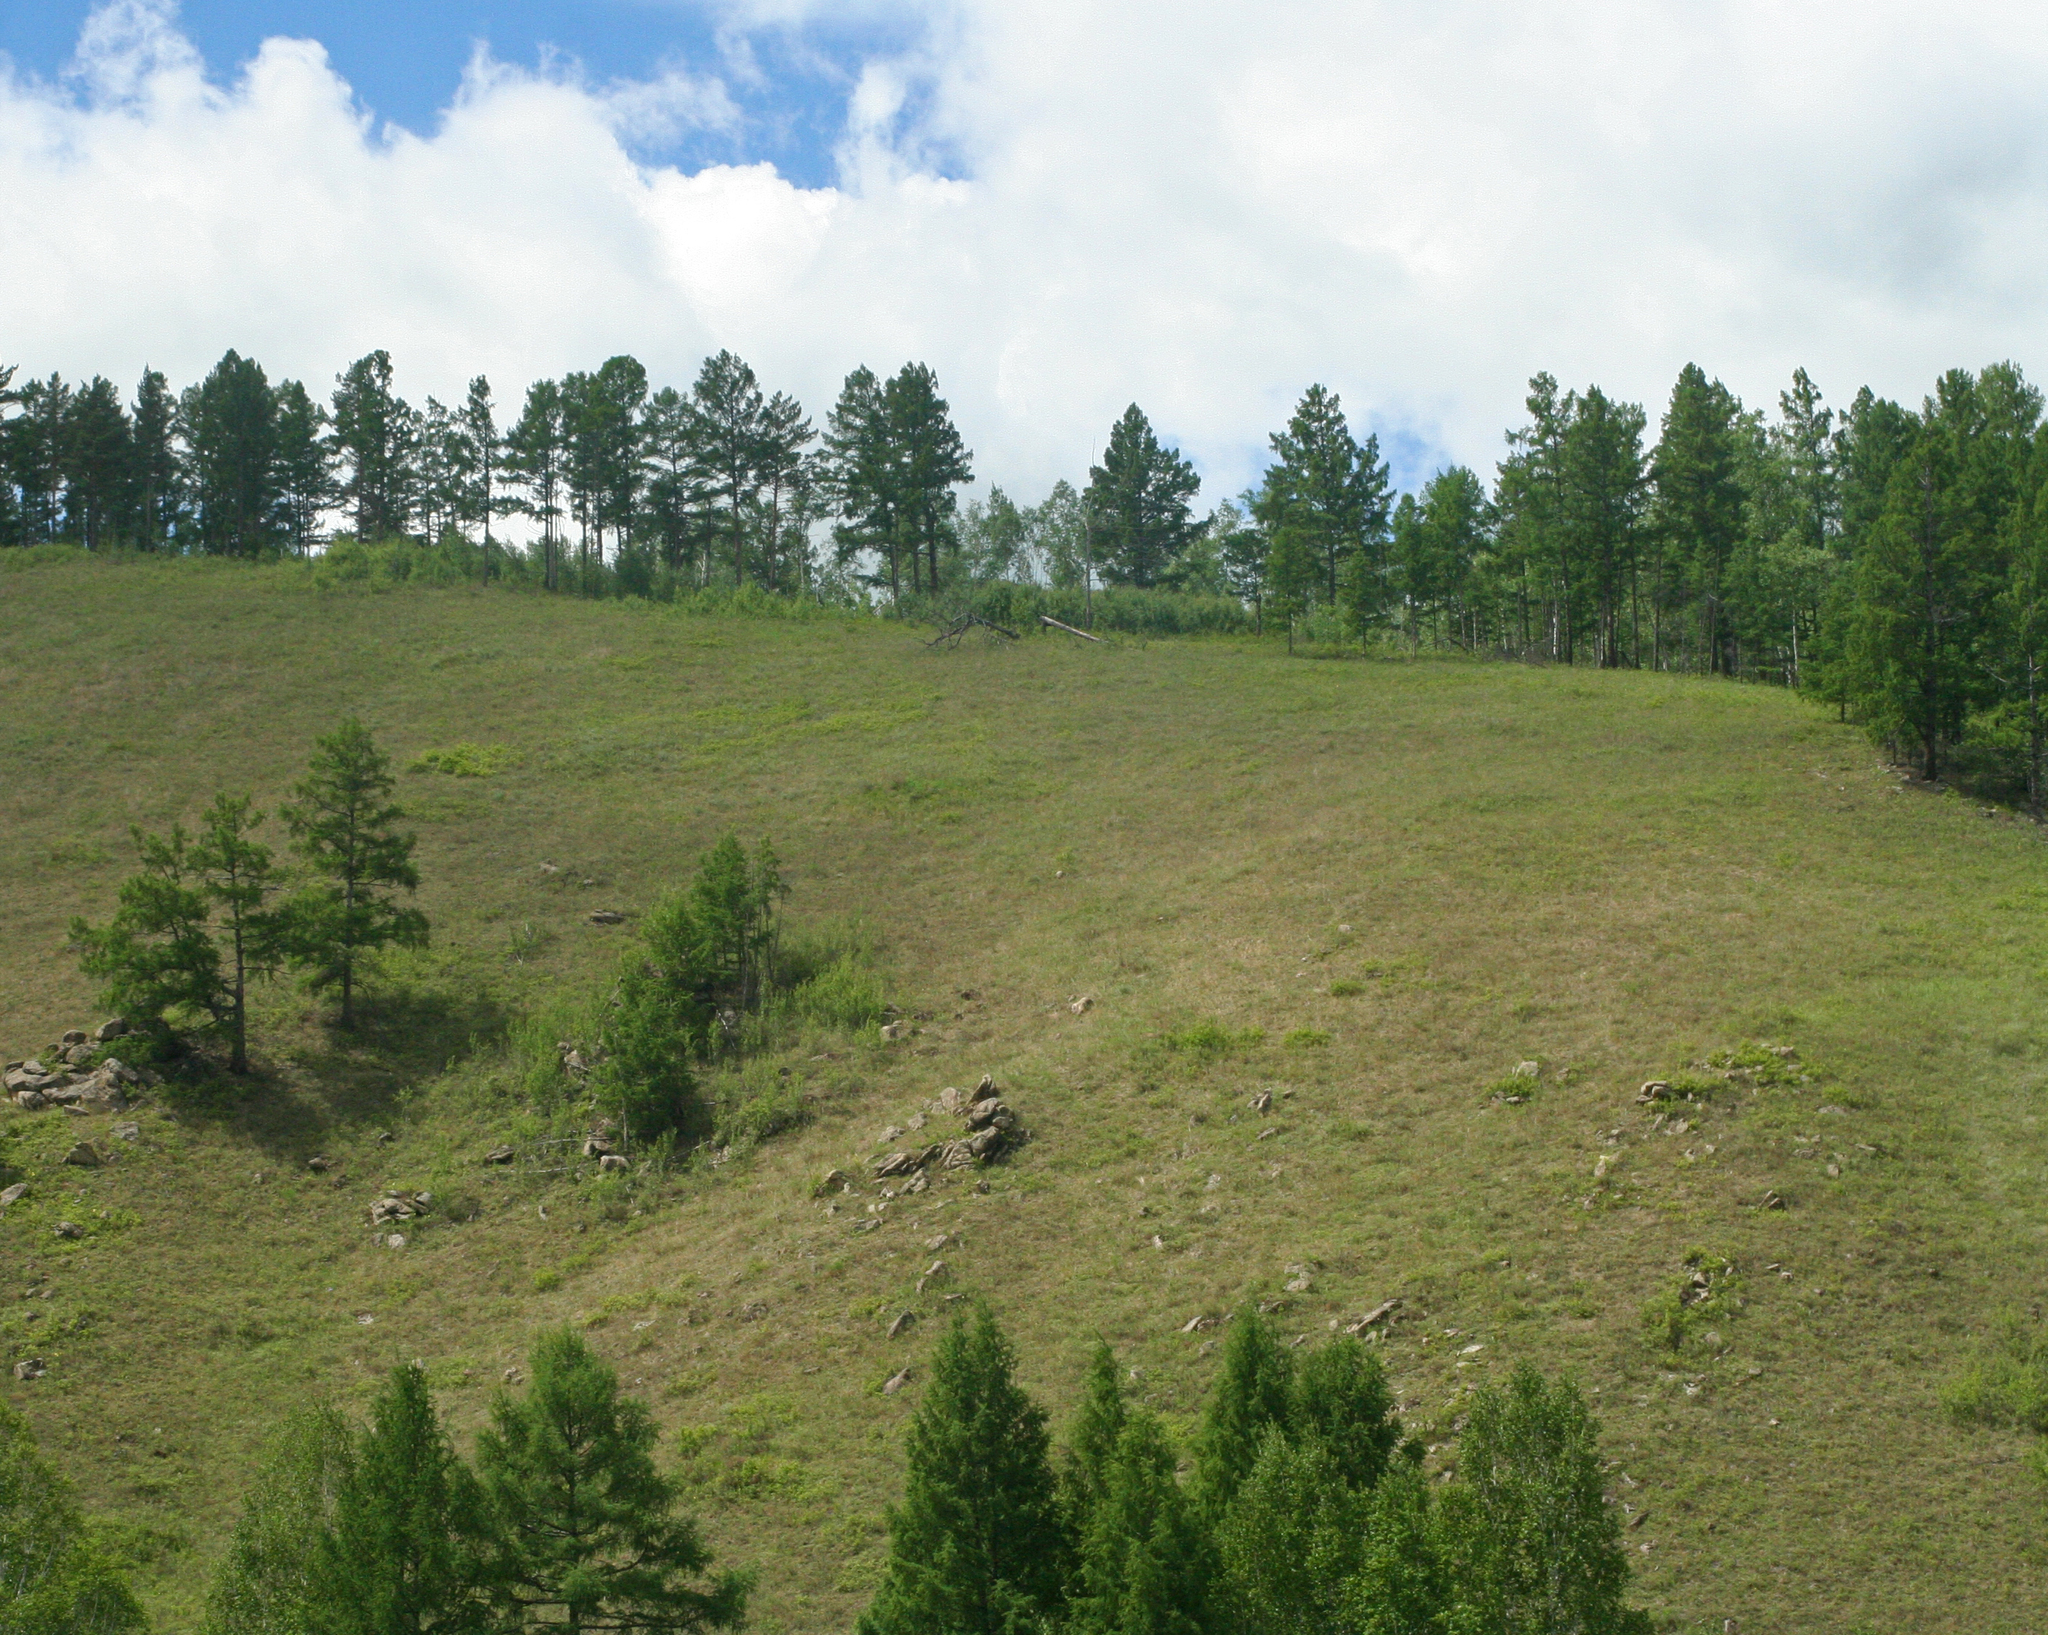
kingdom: Plantae
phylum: Tracheophyta
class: Pinopsida
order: Pinales
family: Pinaceae
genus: Pinus
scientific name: Pinus sylvestris
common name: Scots pine
